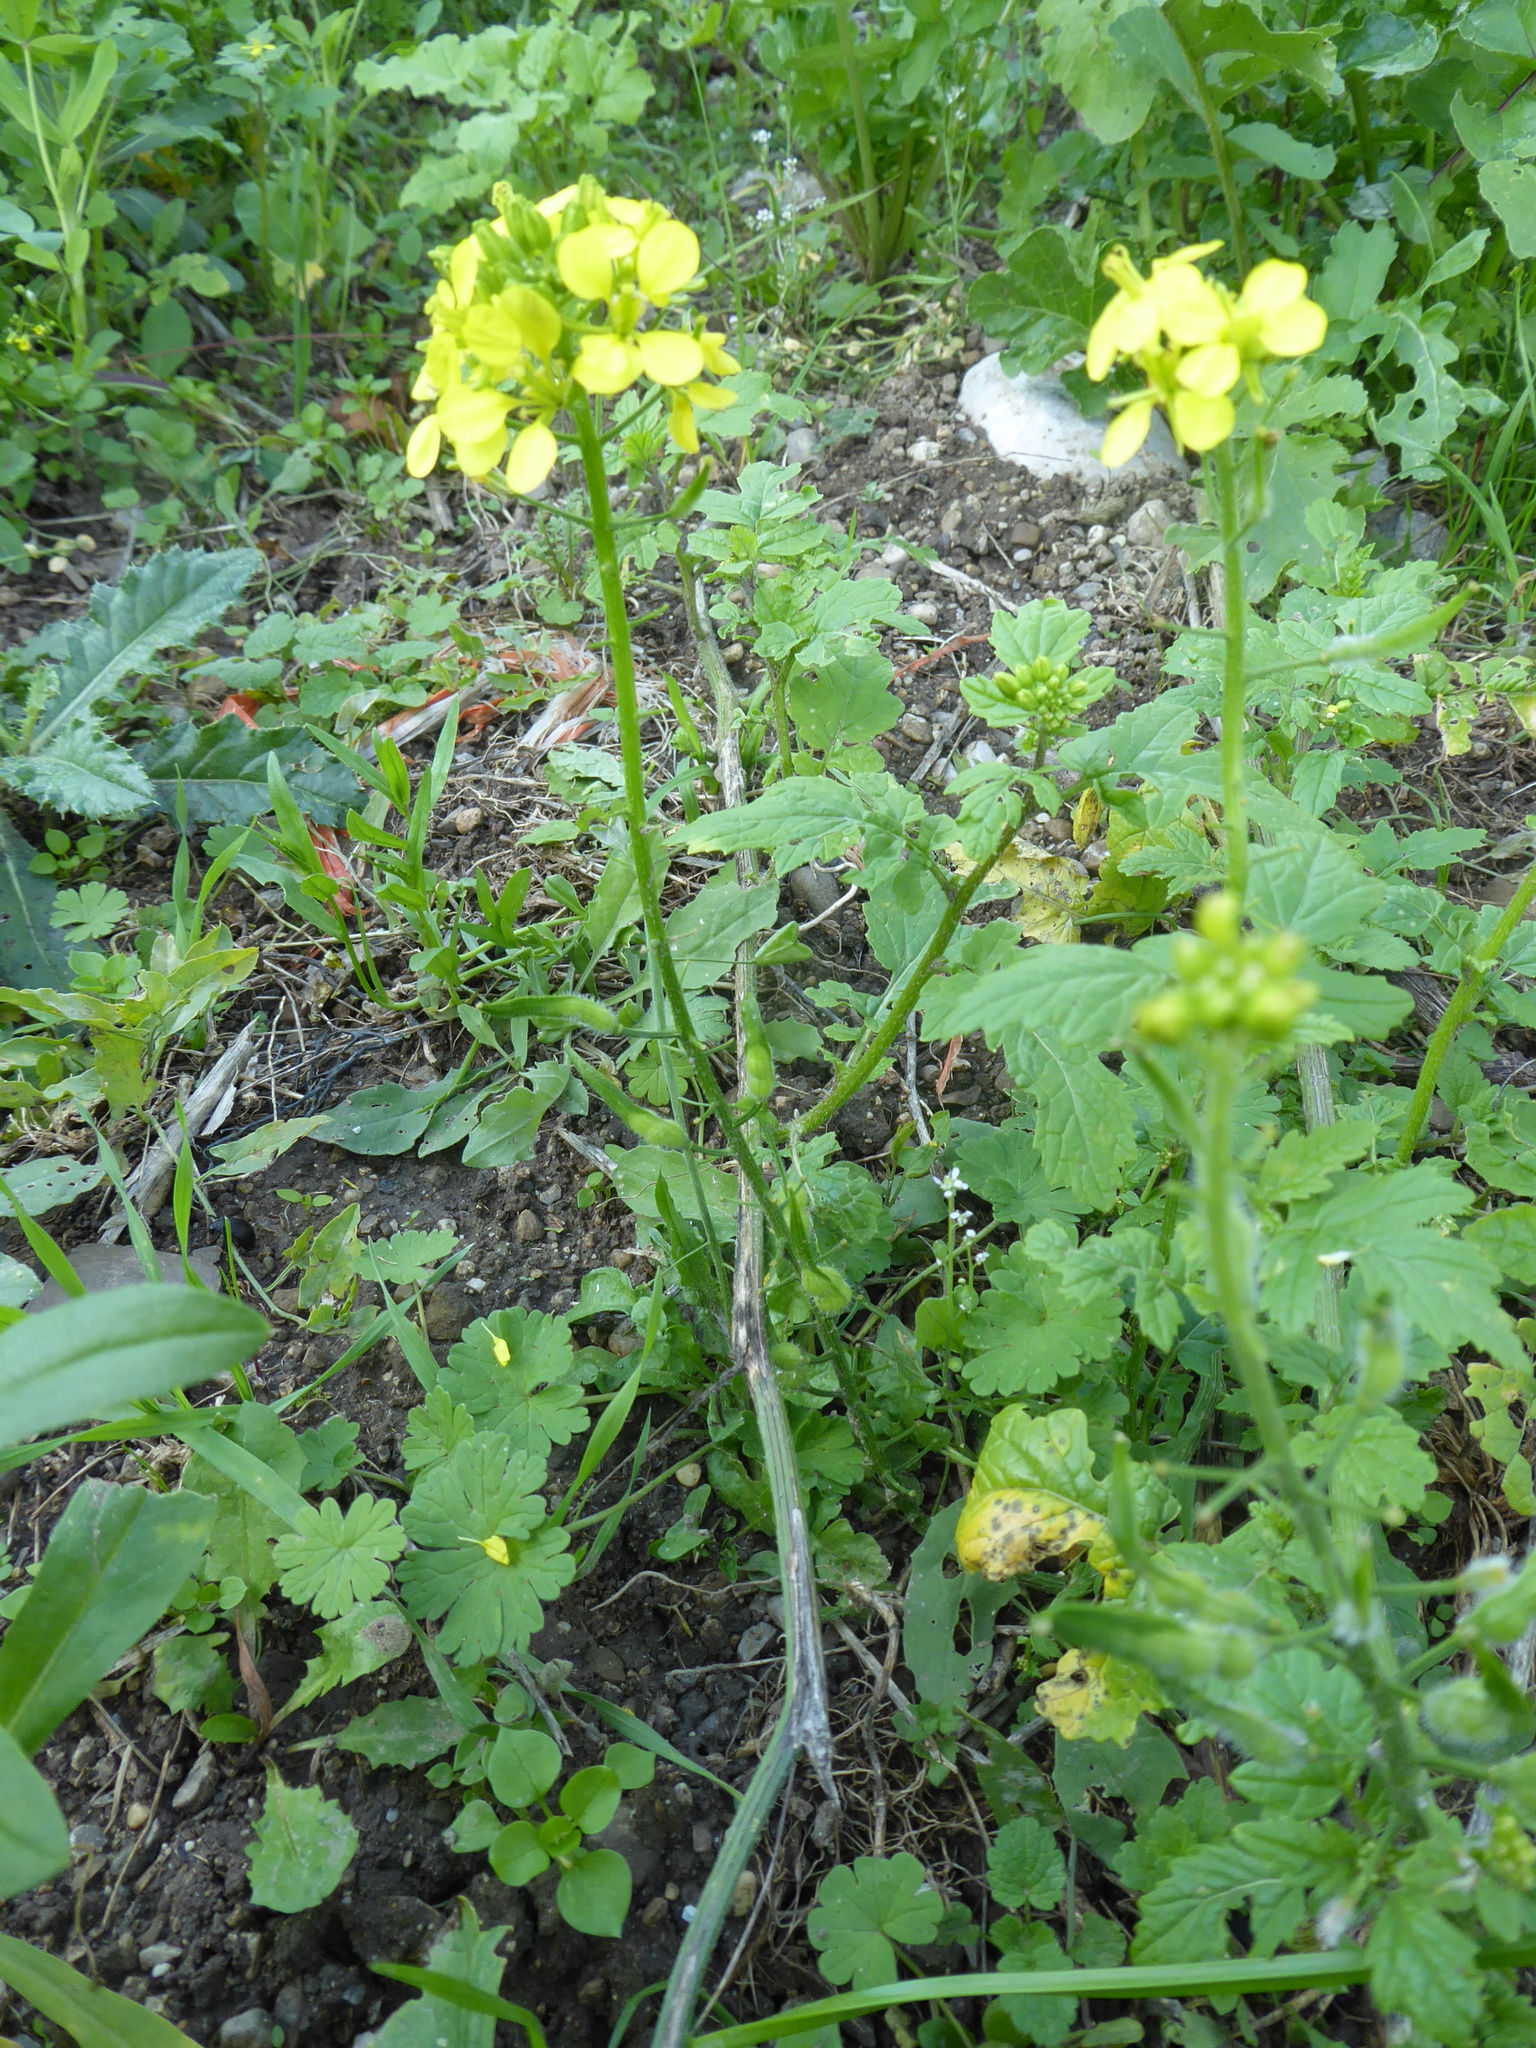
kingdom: Plantae
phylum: Tracheophyta
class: Magnoliopsida
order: Brassicales
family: Brassicaceae
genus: Sinapis
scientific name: Sinapis alba
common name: White mustard
